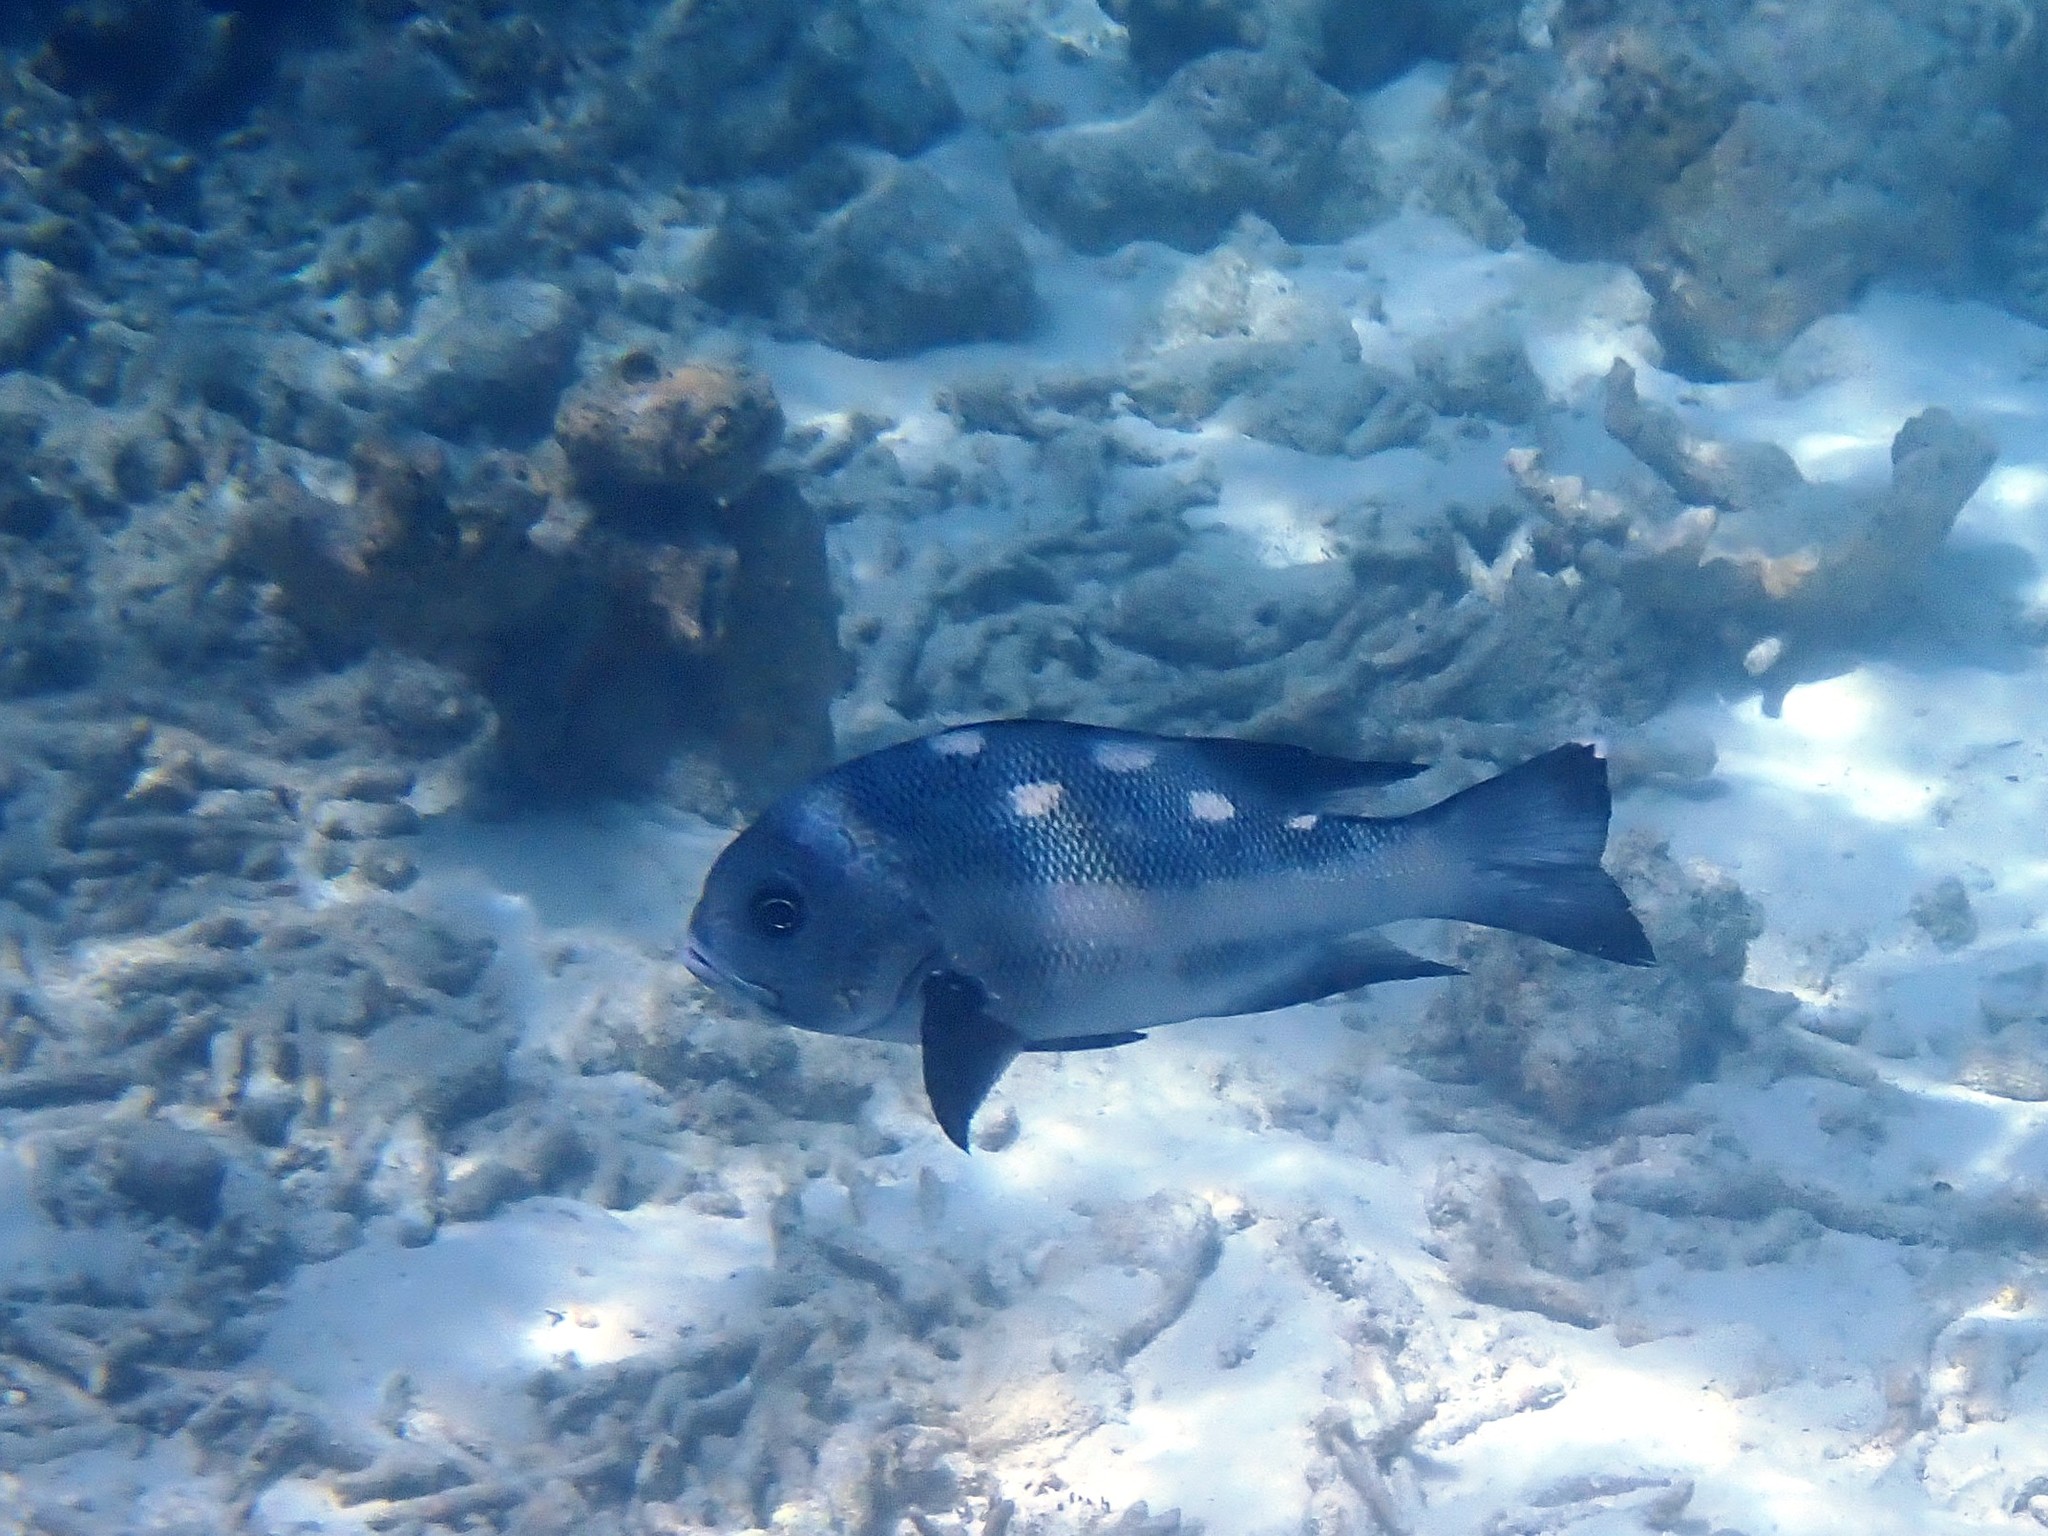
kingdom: Animalia
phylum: Chordata
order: Perciformes
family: Lutjanidae
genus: Macolor
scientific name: Macolor niger
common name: Black snapper
